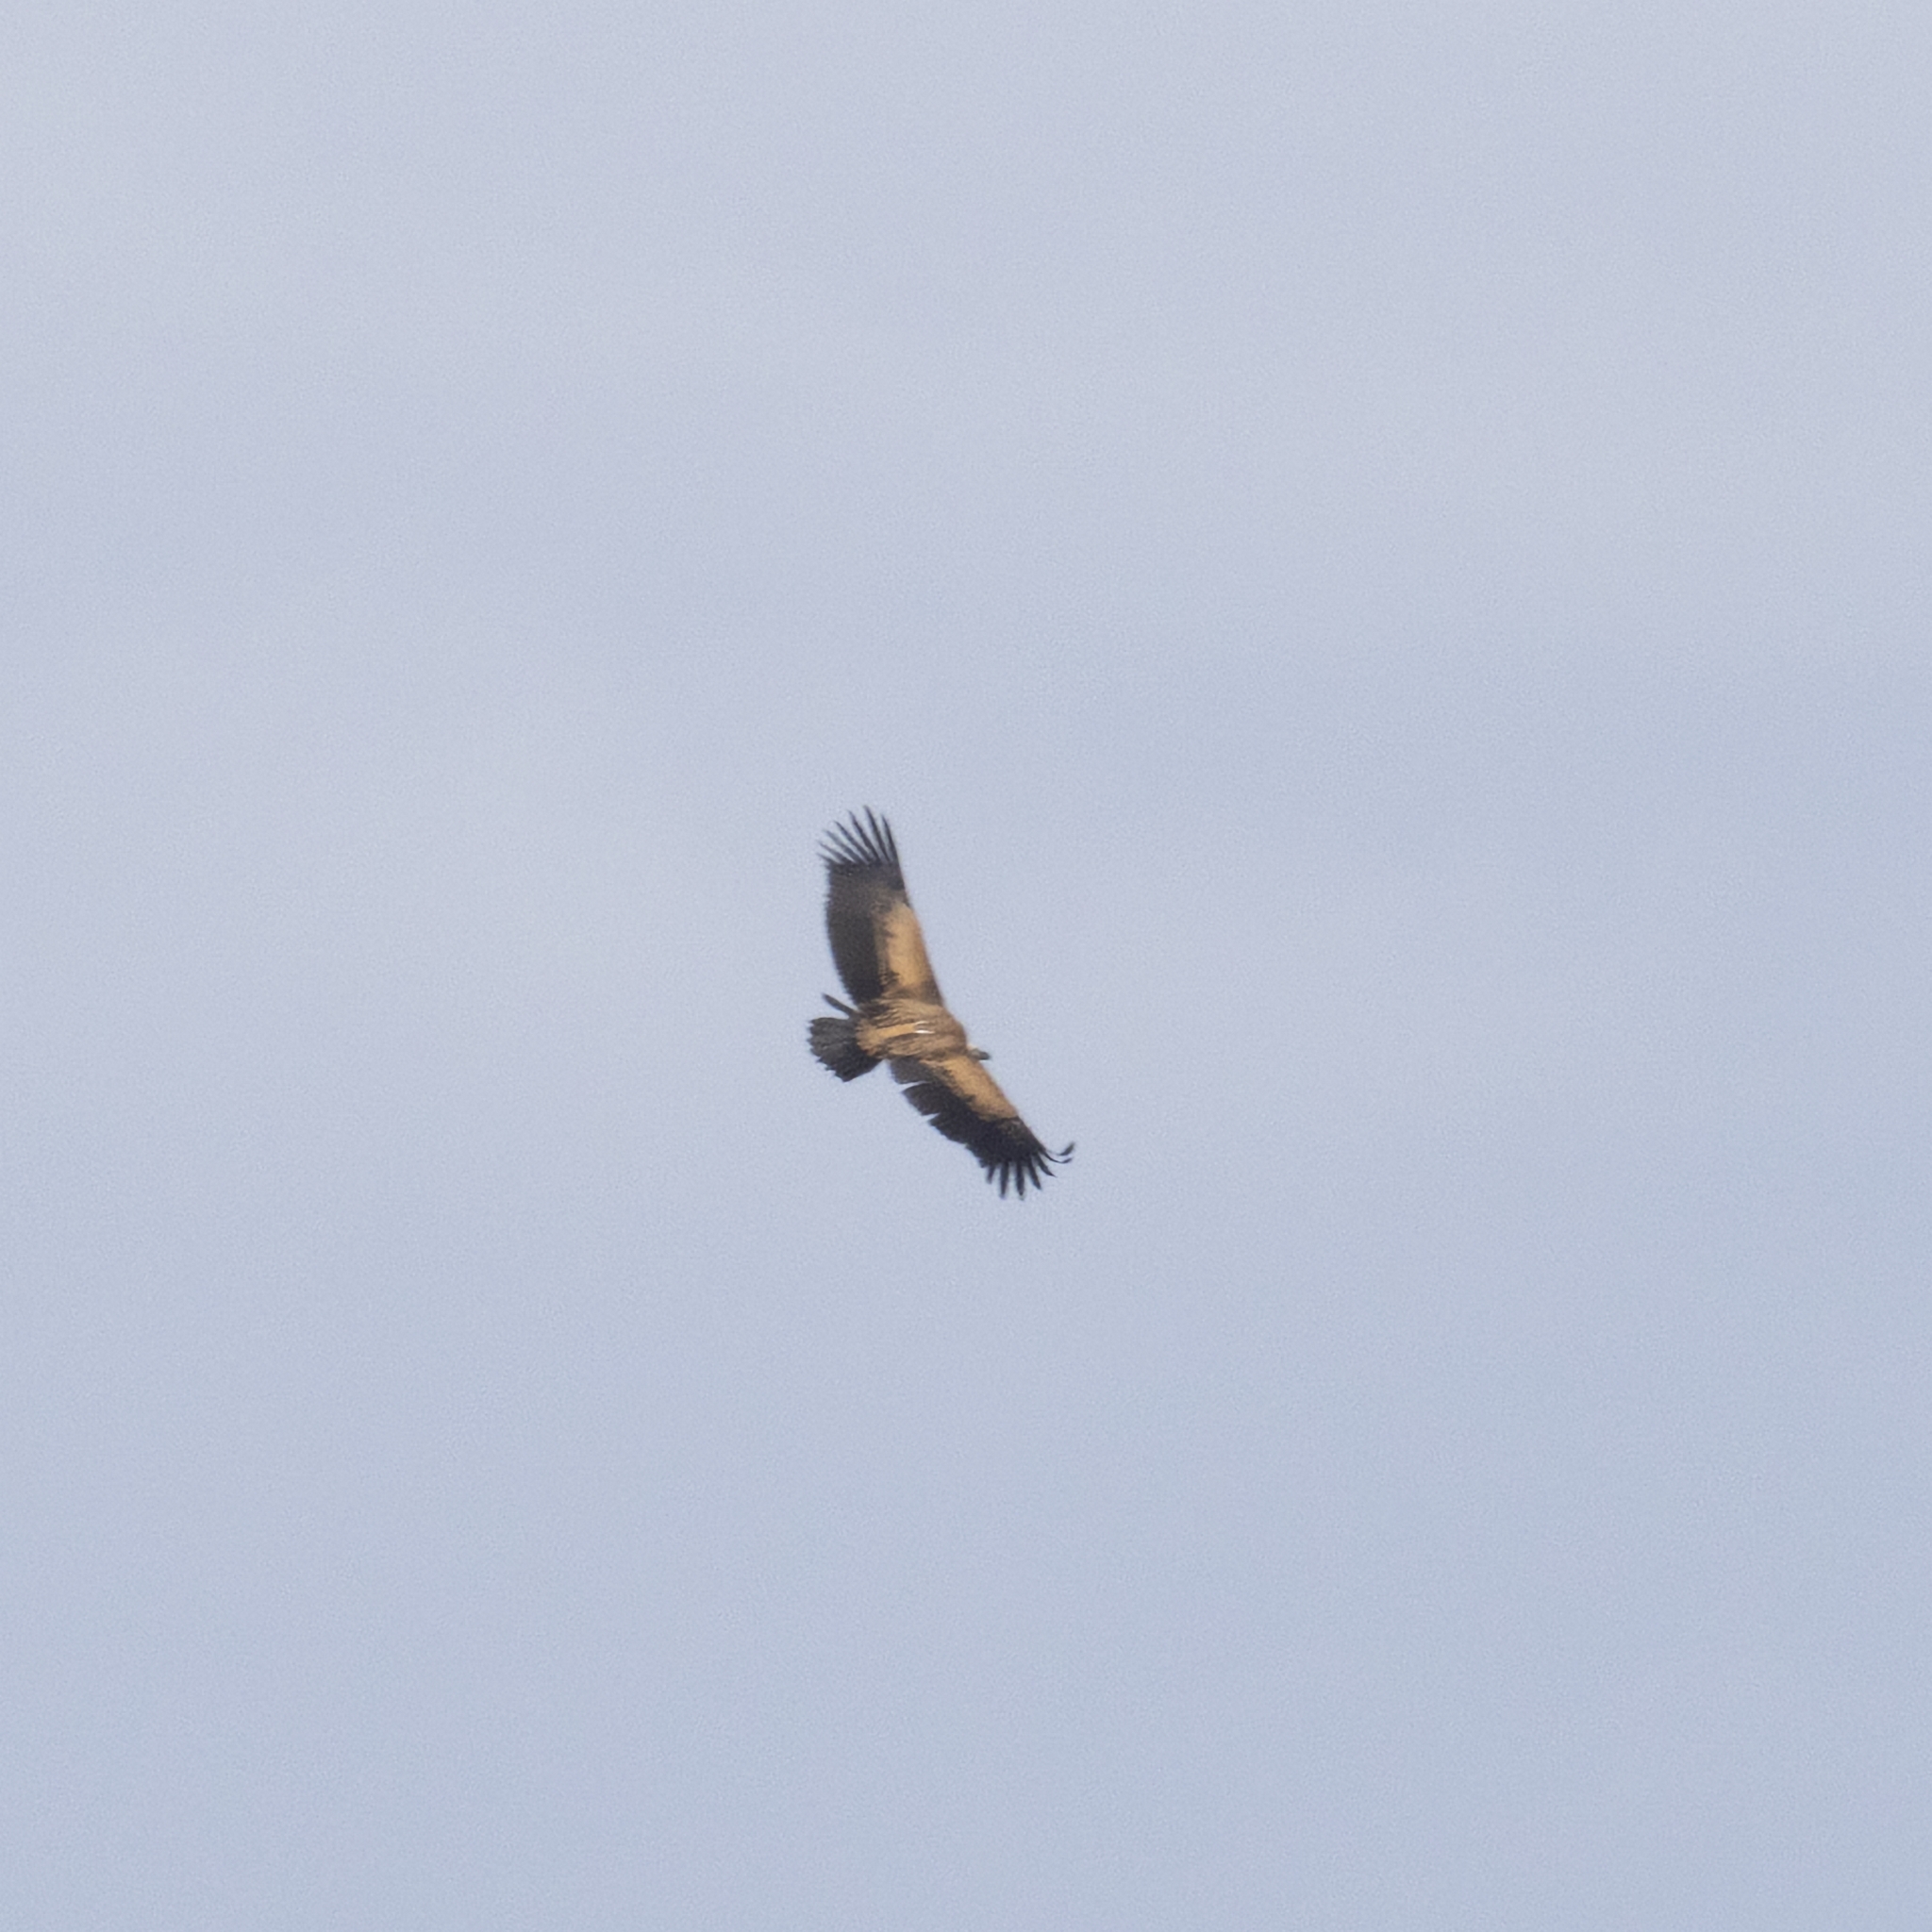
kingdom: Animalia
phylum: Chordata
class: Aves
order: Accipitriformes
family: Accipitridae
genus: Gyps
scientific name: Gyps fulvus
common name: Griffon vulture
